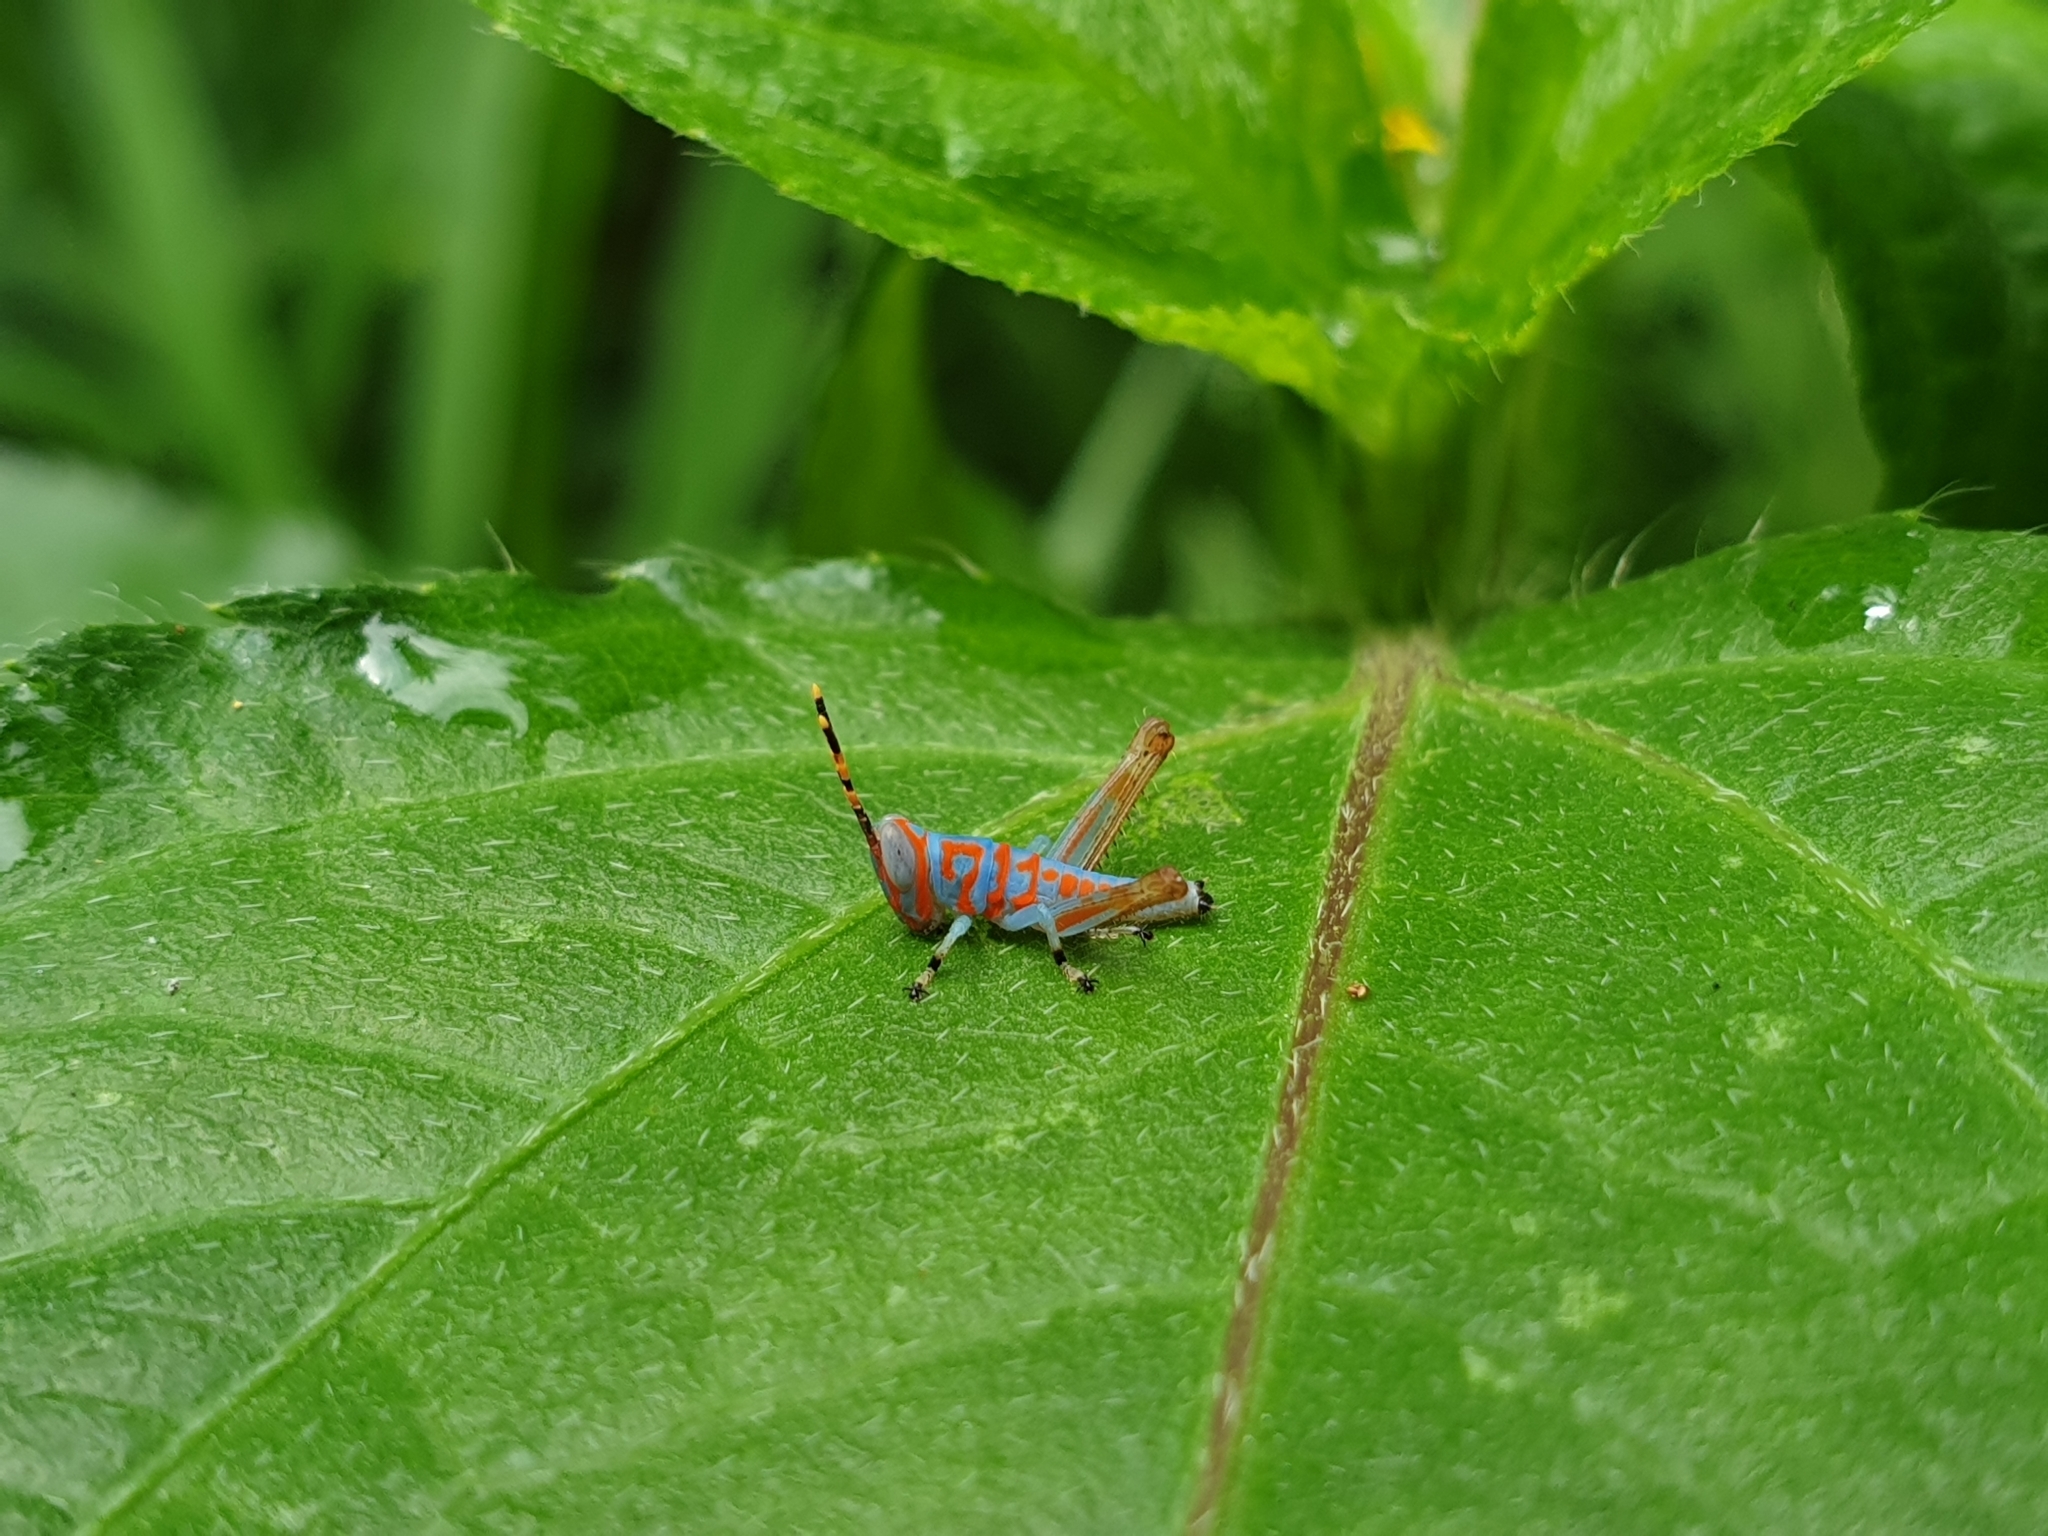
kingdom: Animalia
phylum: Arthropoda
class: Insecta
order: Orthoptera
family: Acrididae
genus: Pirithoicus
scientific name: Pirithoicus ophthalmicus
